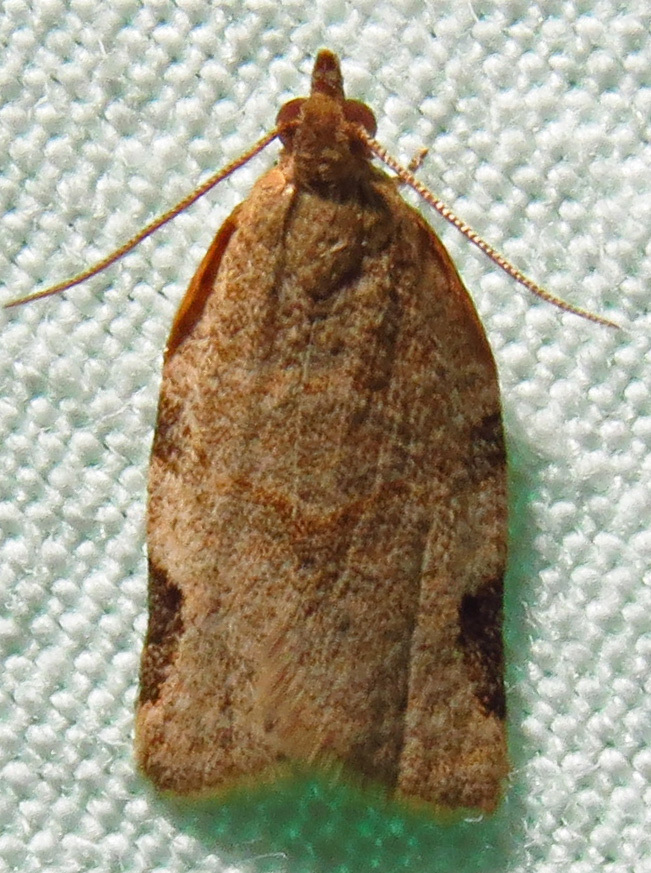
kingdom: Animalia
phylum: Arthropoda
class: Insecta
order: Lepidoptera
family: Tortricidae
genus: Clepsis
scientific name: Clepsis virescana
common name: Greenish apple moth
